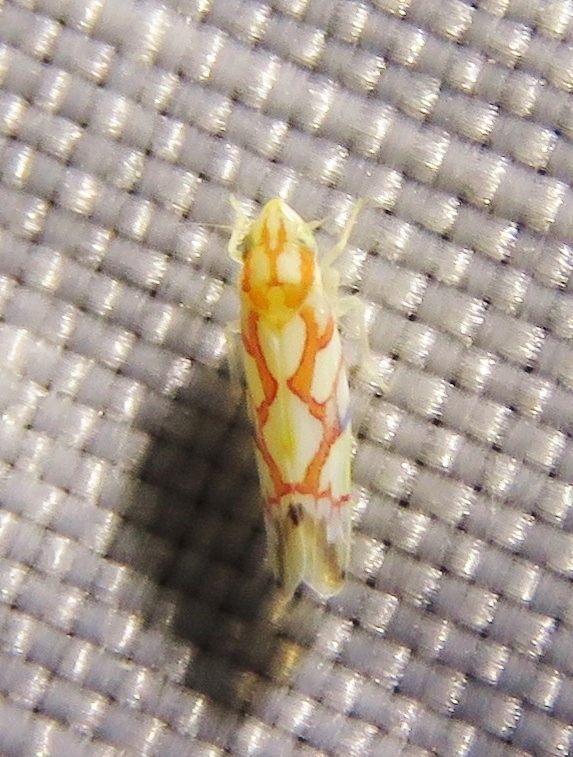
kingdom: Animalia
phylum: Arthropoda
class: Insecta
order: Hemiptera
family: Cicadellidae
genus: Erythroneura
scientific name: Erythroneura acuticephala
